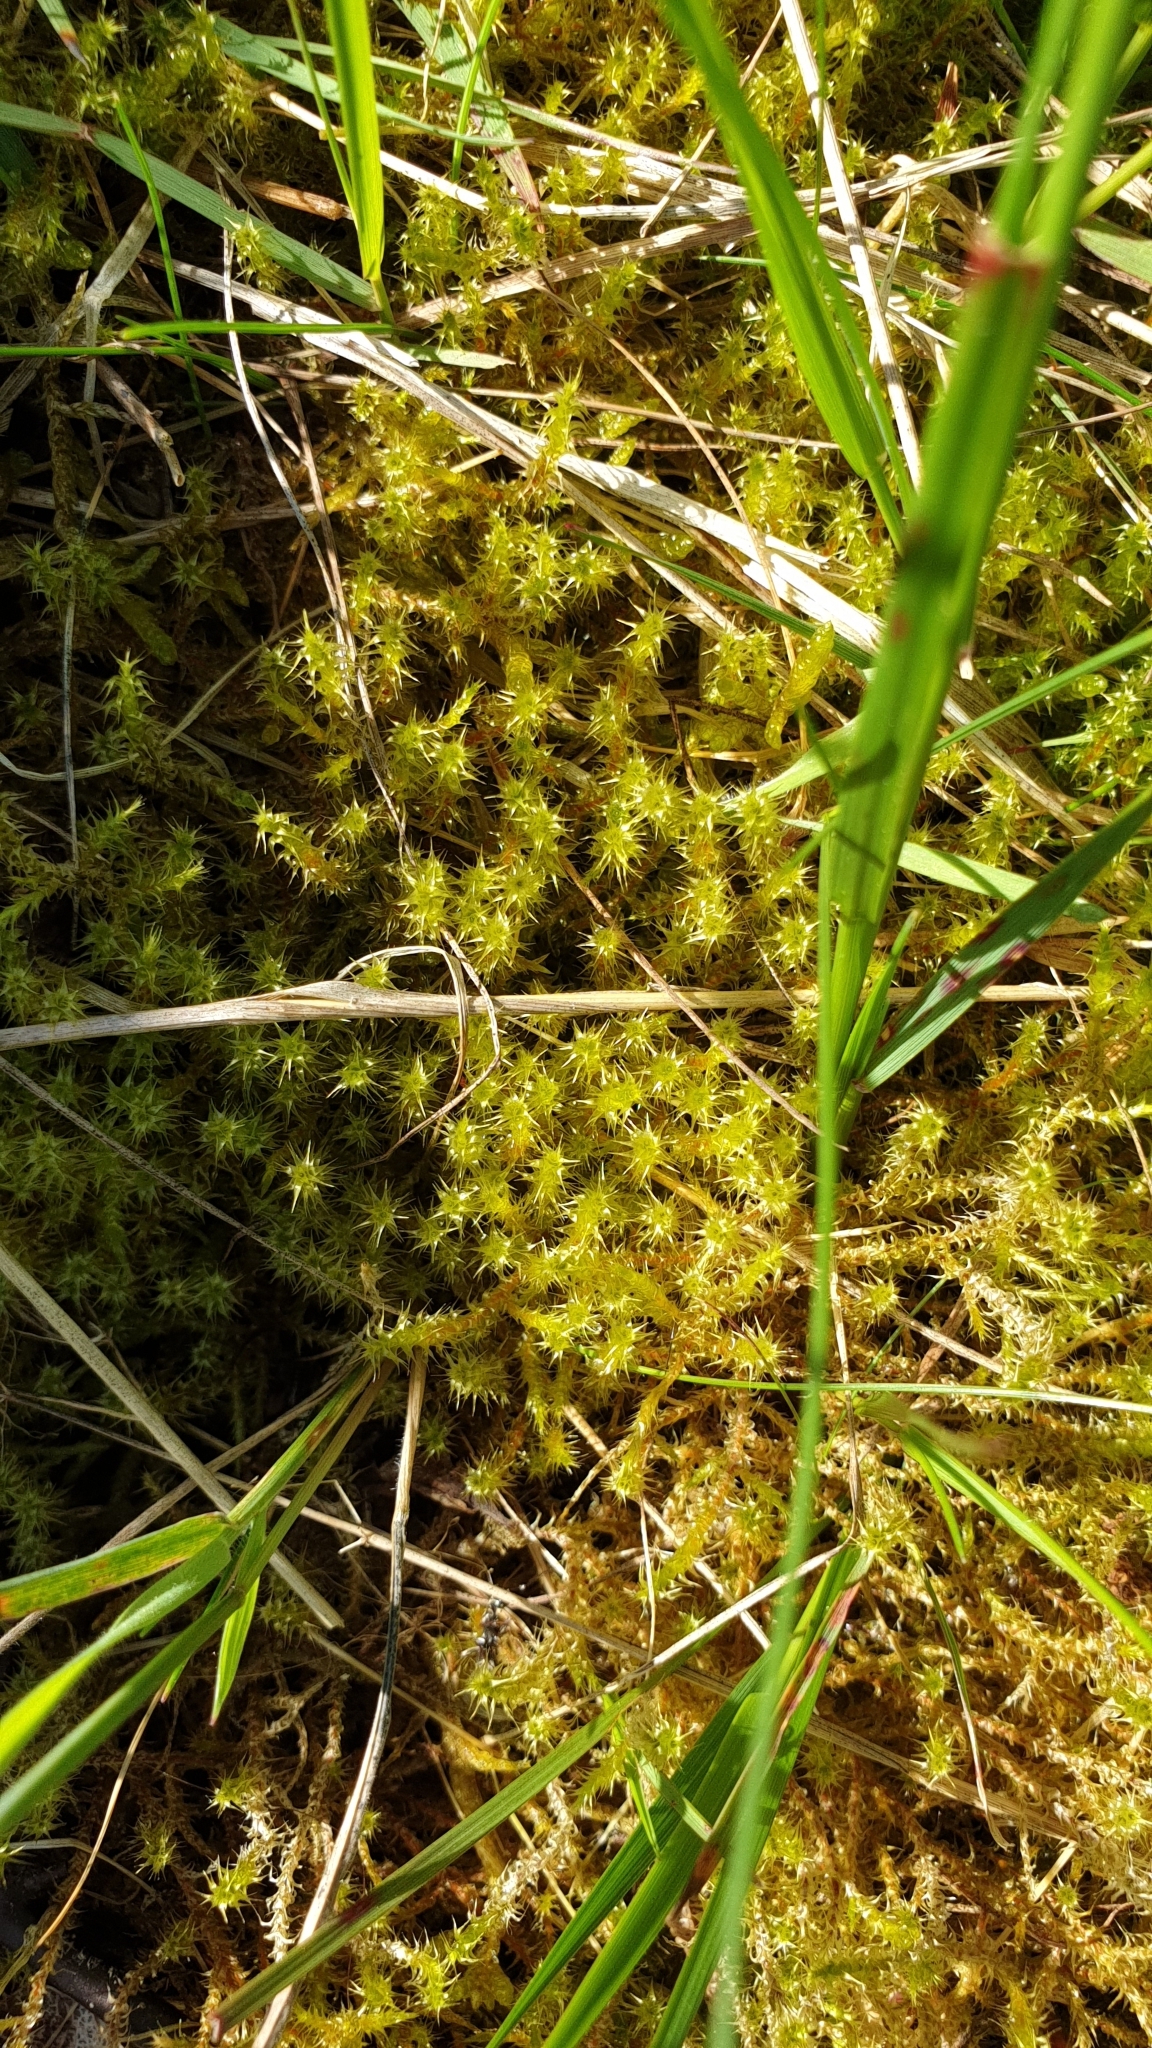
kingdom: Plantae
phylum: Bryophyta
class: Bryopsida
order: Hypnales
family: Hylocomiaceae
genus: Rhytidiadelphus
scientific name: Rhytidiadelphus squarrosus
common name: Springy turf-moss
